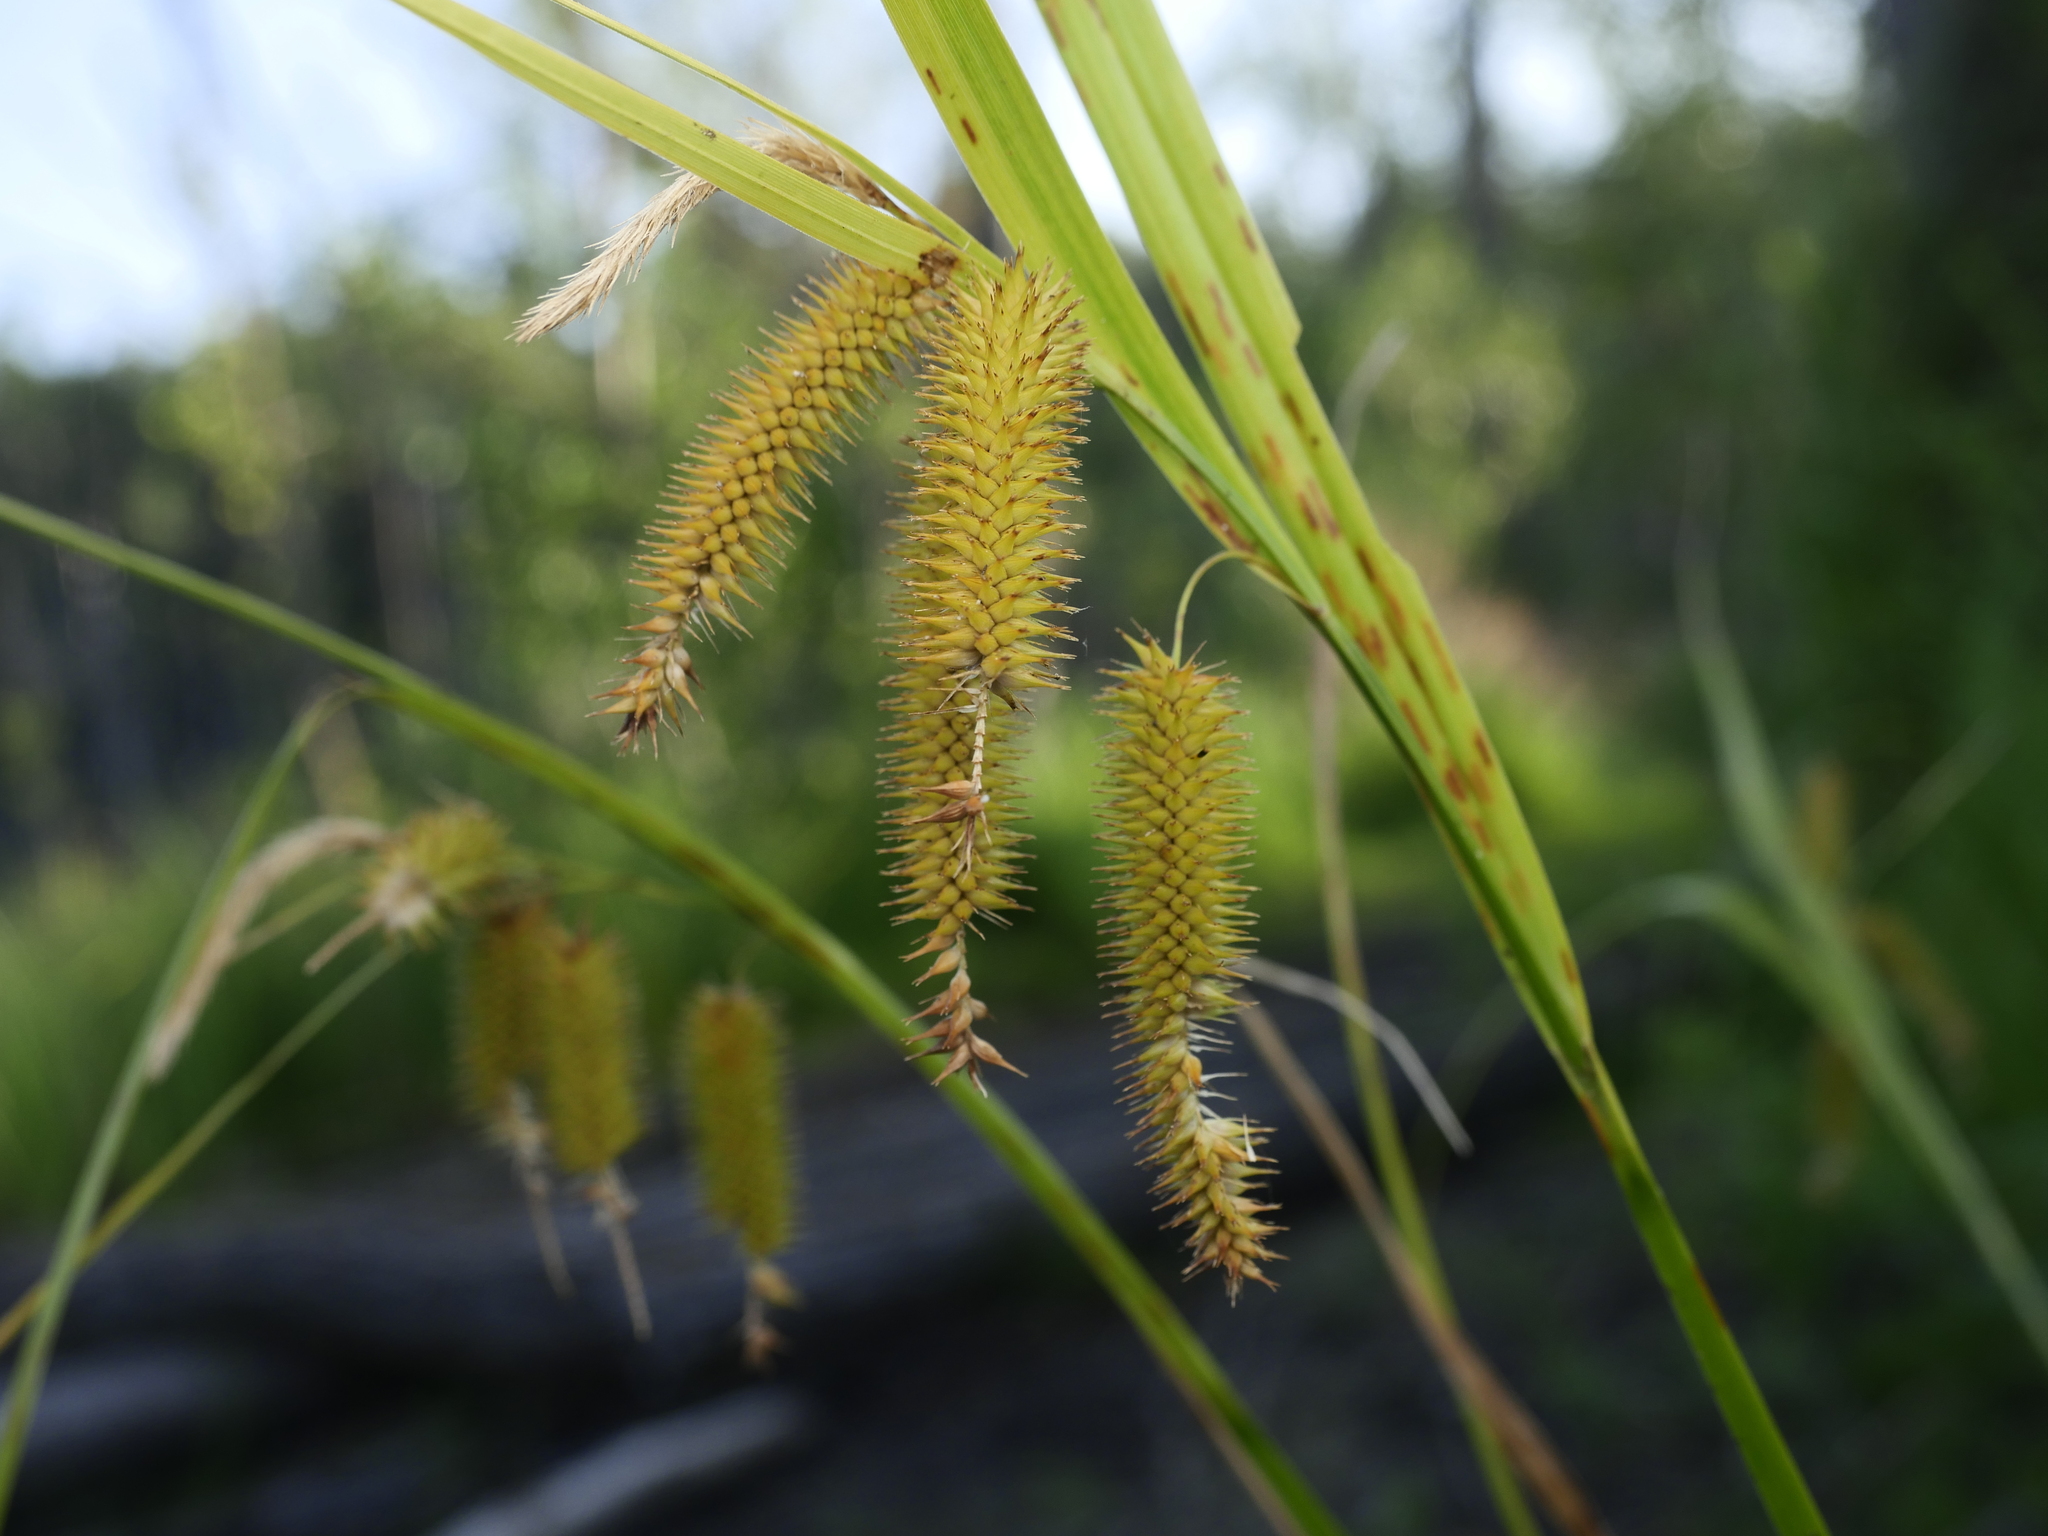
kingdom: Plantae
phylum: Tracheophyta
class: Liliopsida
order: Poales
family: Cyperaceae
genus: Carex
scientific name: Carex pseudocyperus
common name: Cyperus sedge
